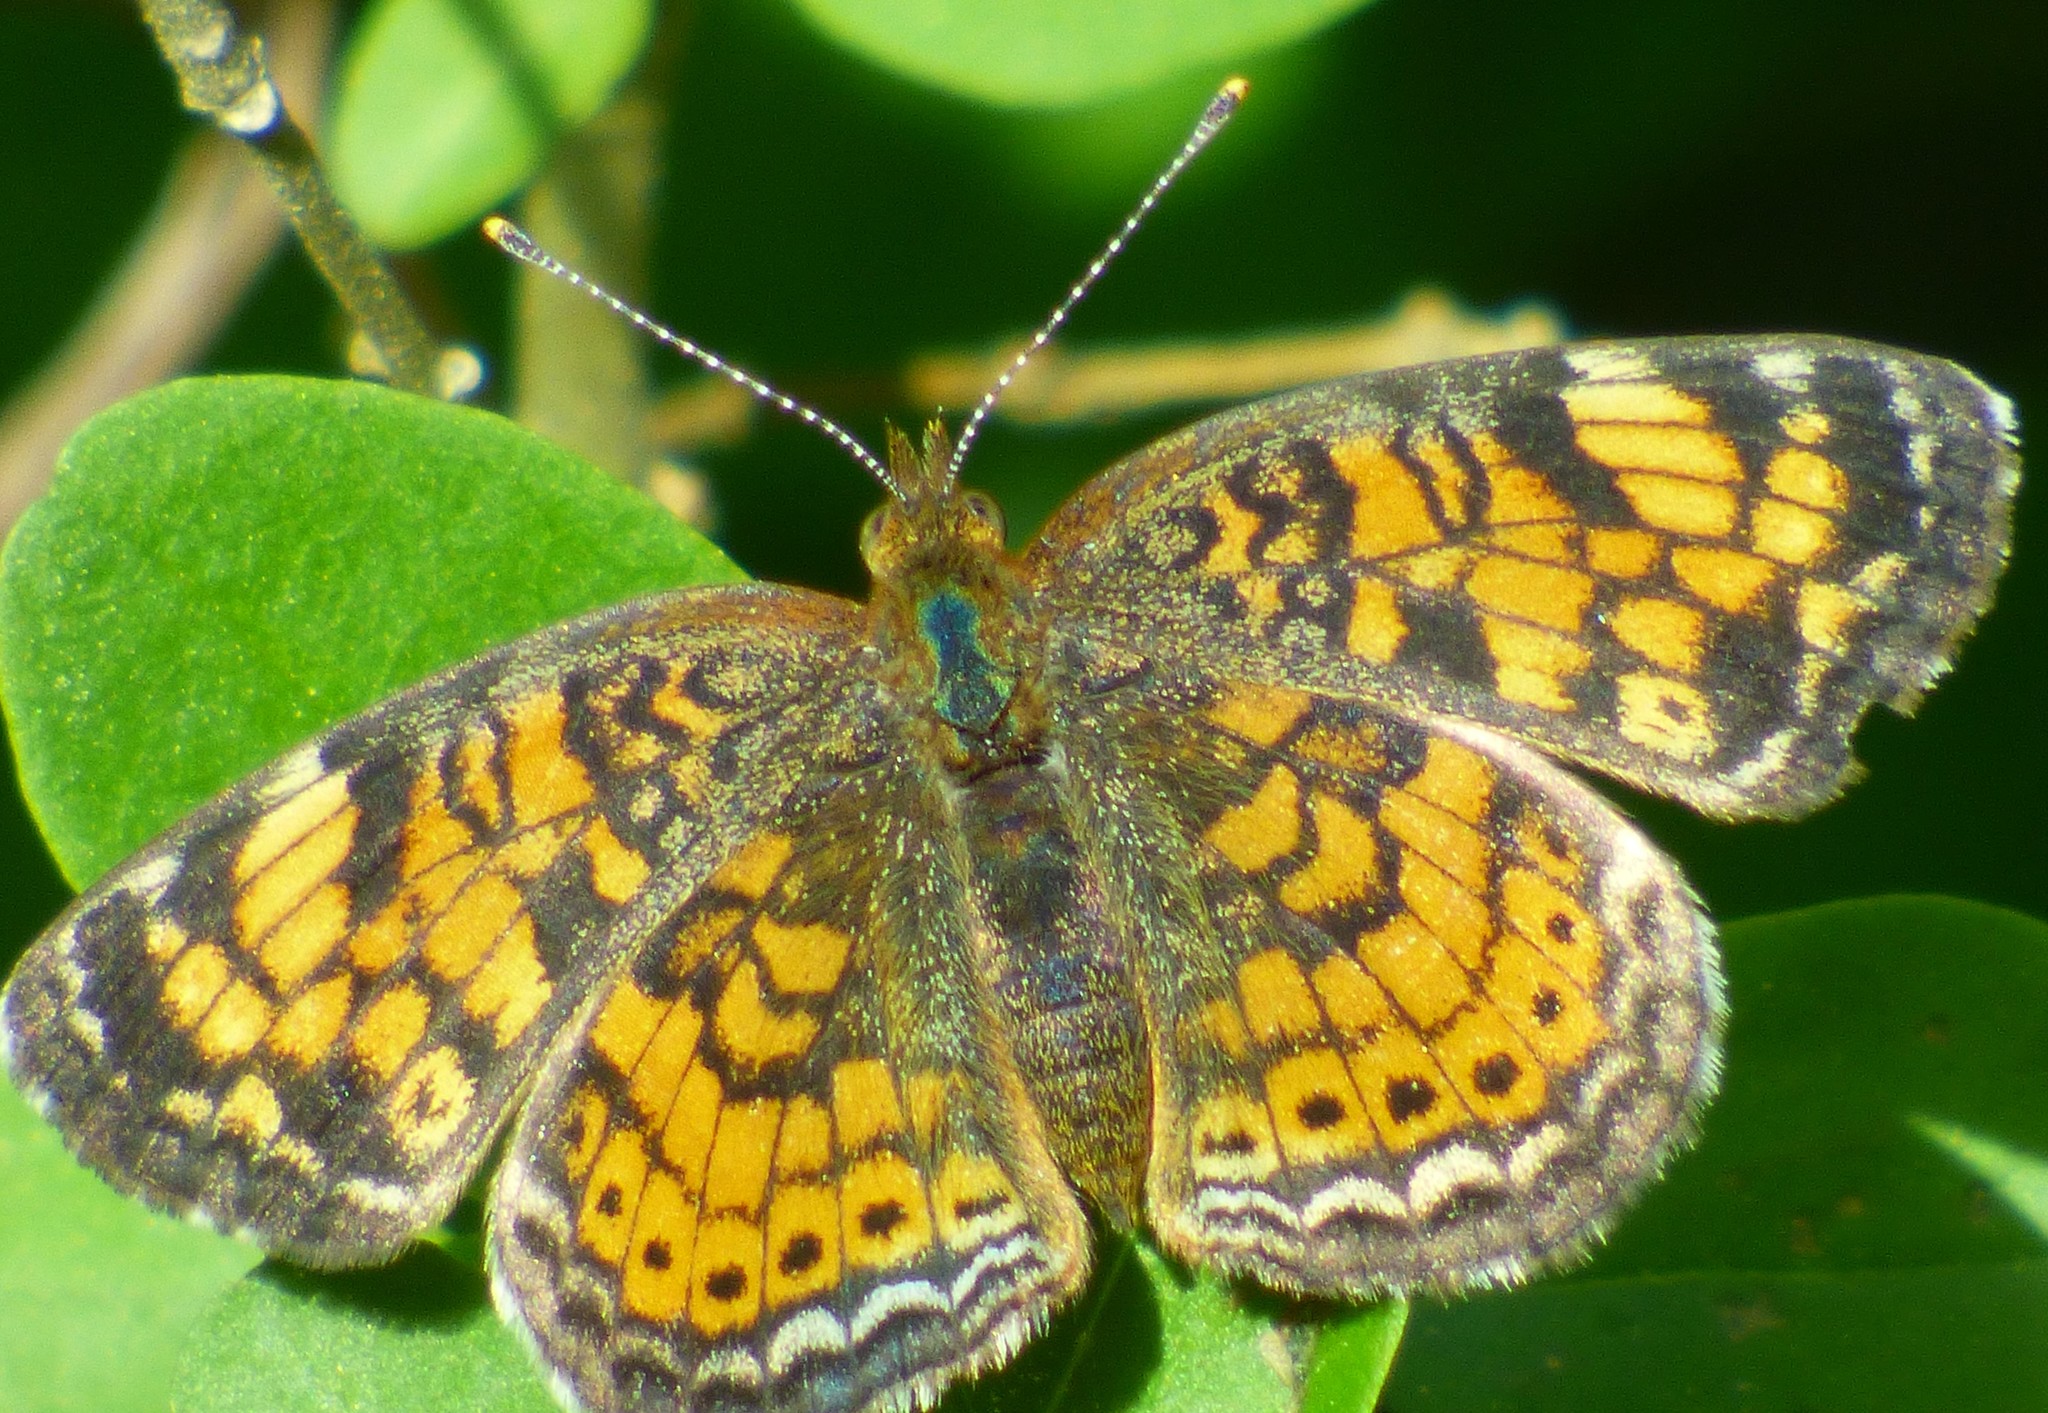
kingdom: Animalia
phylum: Arthropoda
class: Insecta
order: Lepidoptera
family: Nymphalidae
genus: Phyciodes
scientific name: Phyciodes tharos
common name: Pearl crescent
